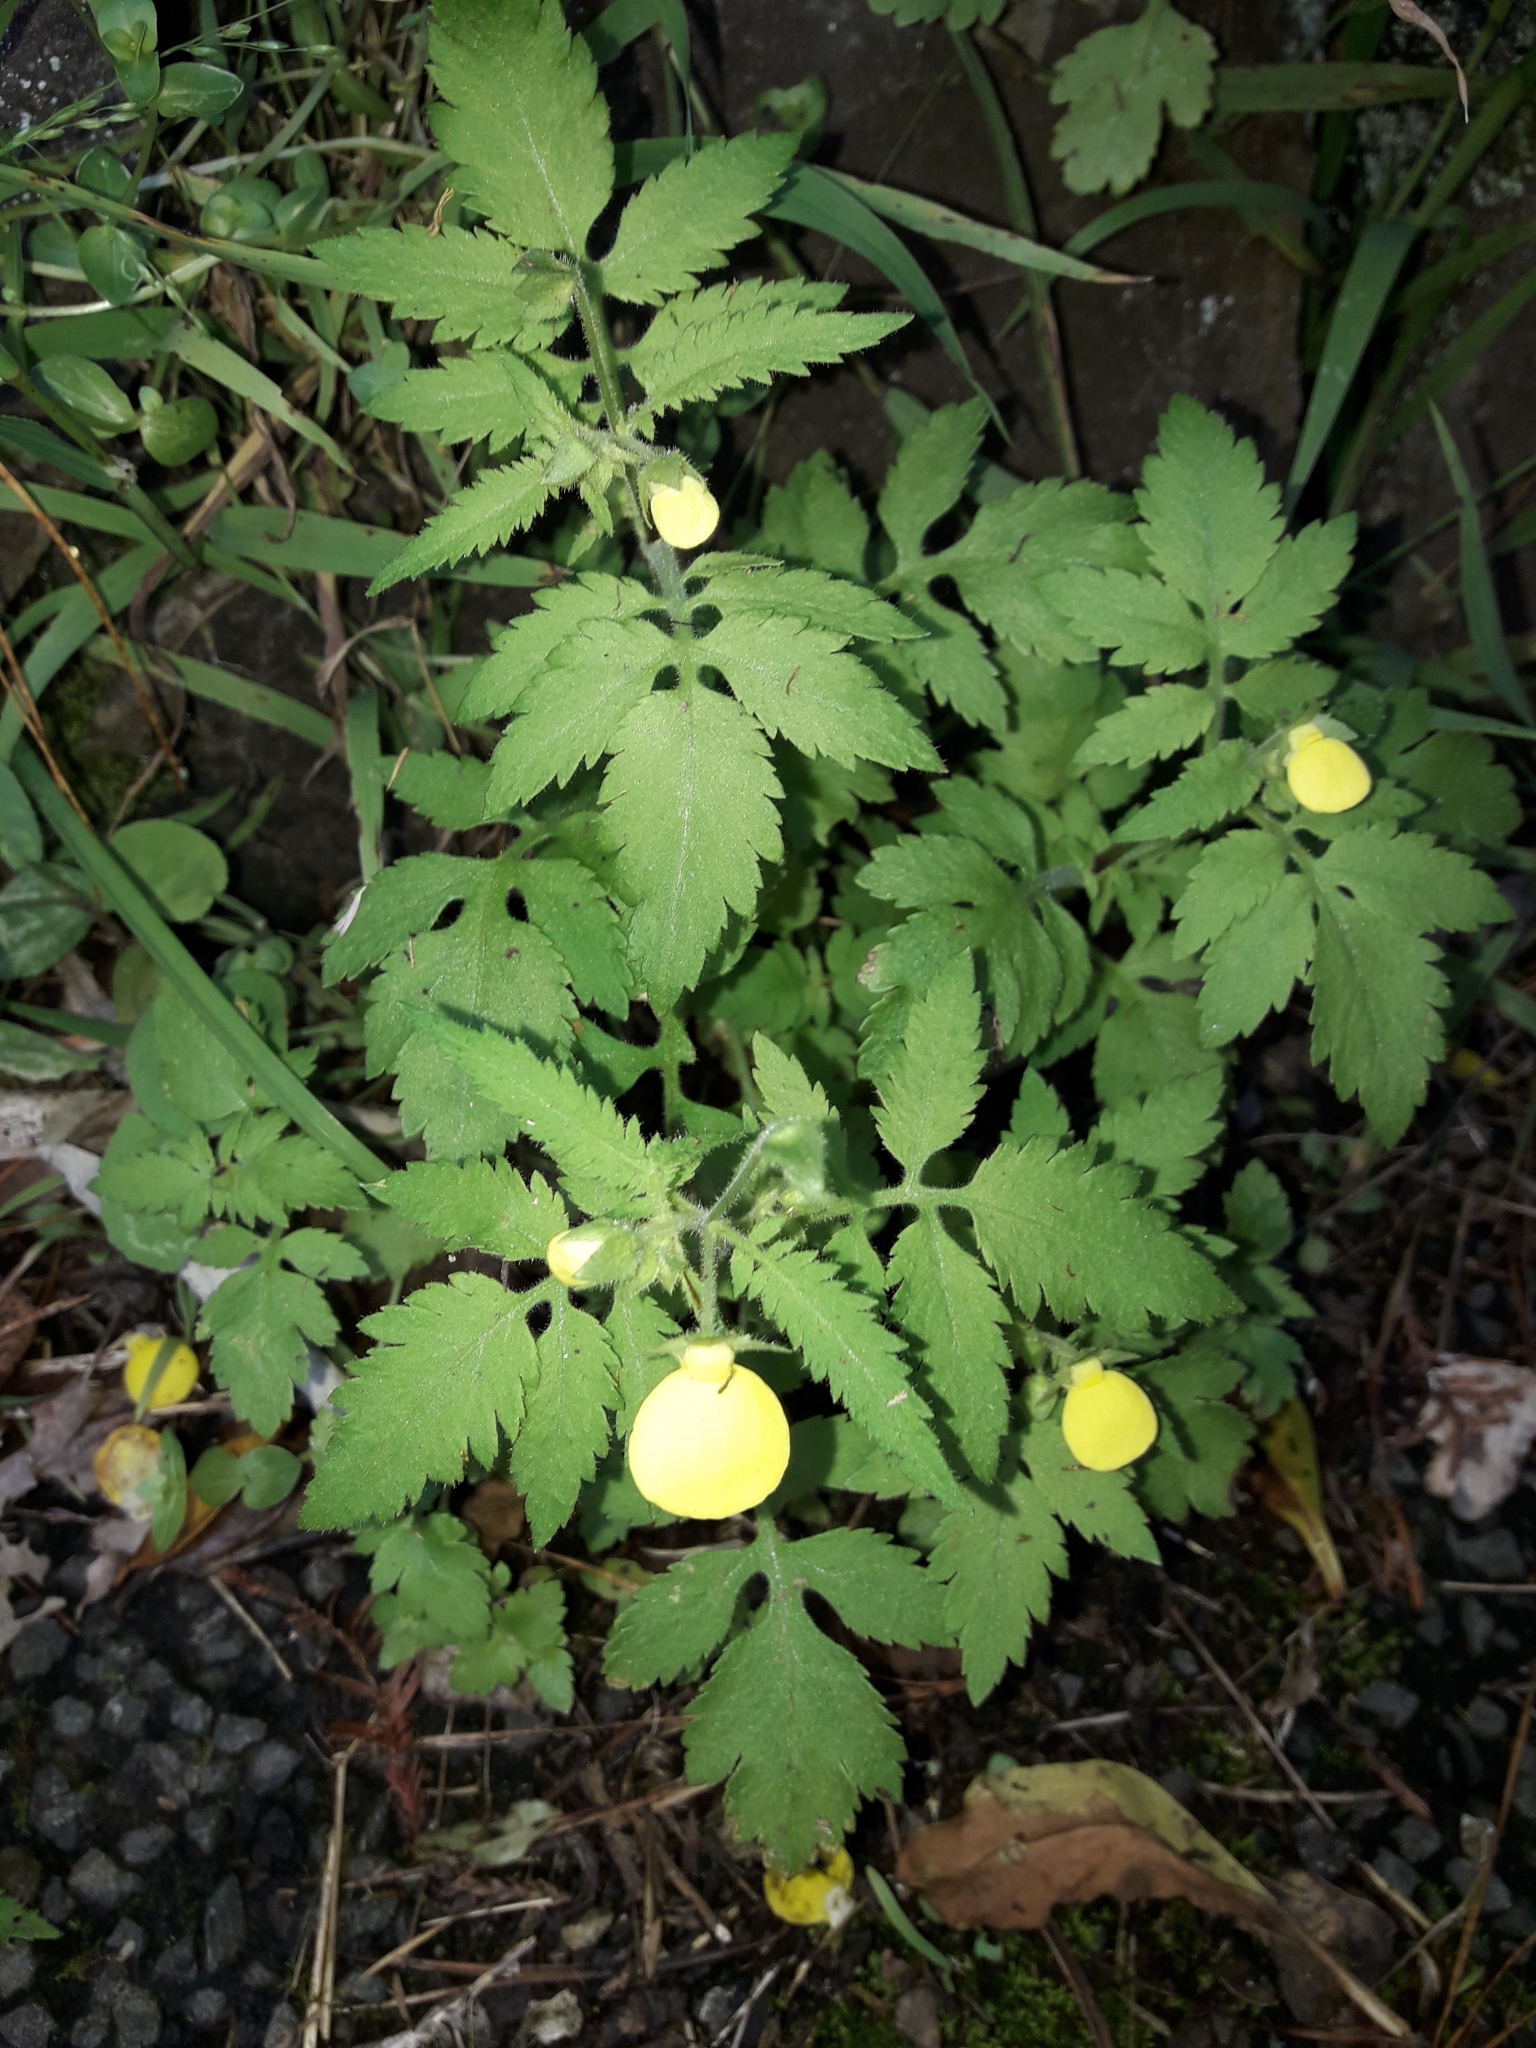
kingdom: Plantae
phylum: Tracheophyta
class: Magnoliopsida
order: Lamiales
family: Calceolariaceae
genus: Calceolaria
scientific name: Calceolaria tripartita
